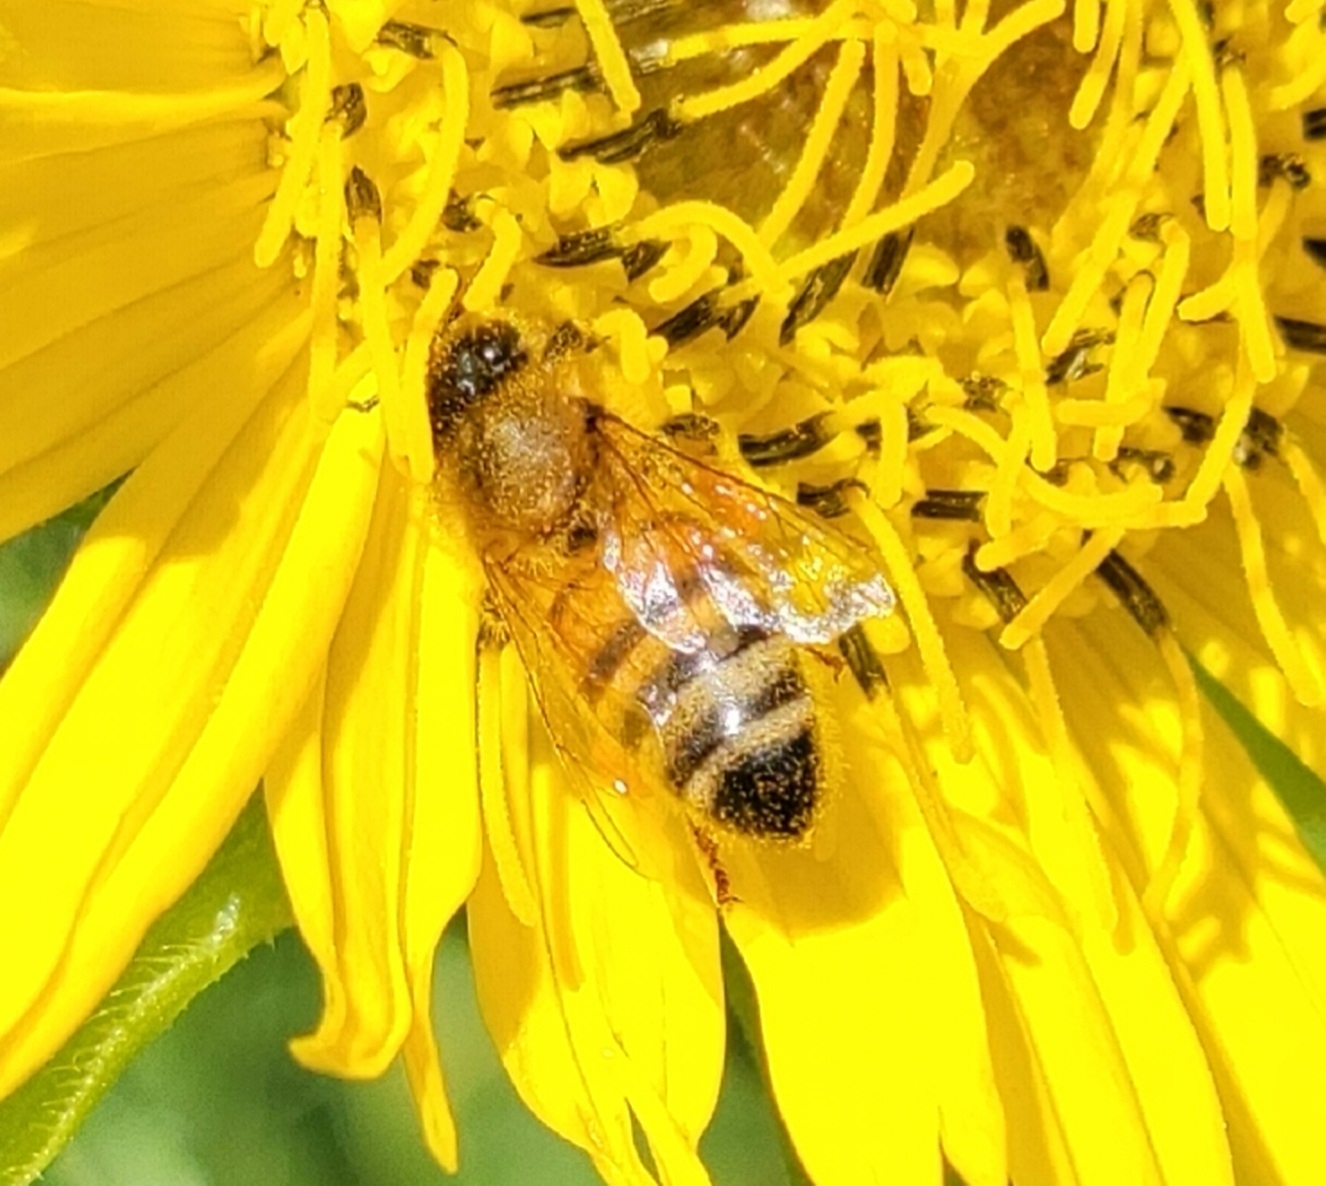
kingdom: Animalia
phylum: Arthropoda
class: Insecta
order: Hymenoptera
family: Apidae
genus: Apis
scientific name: Apis mellifera
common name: Honey bee
